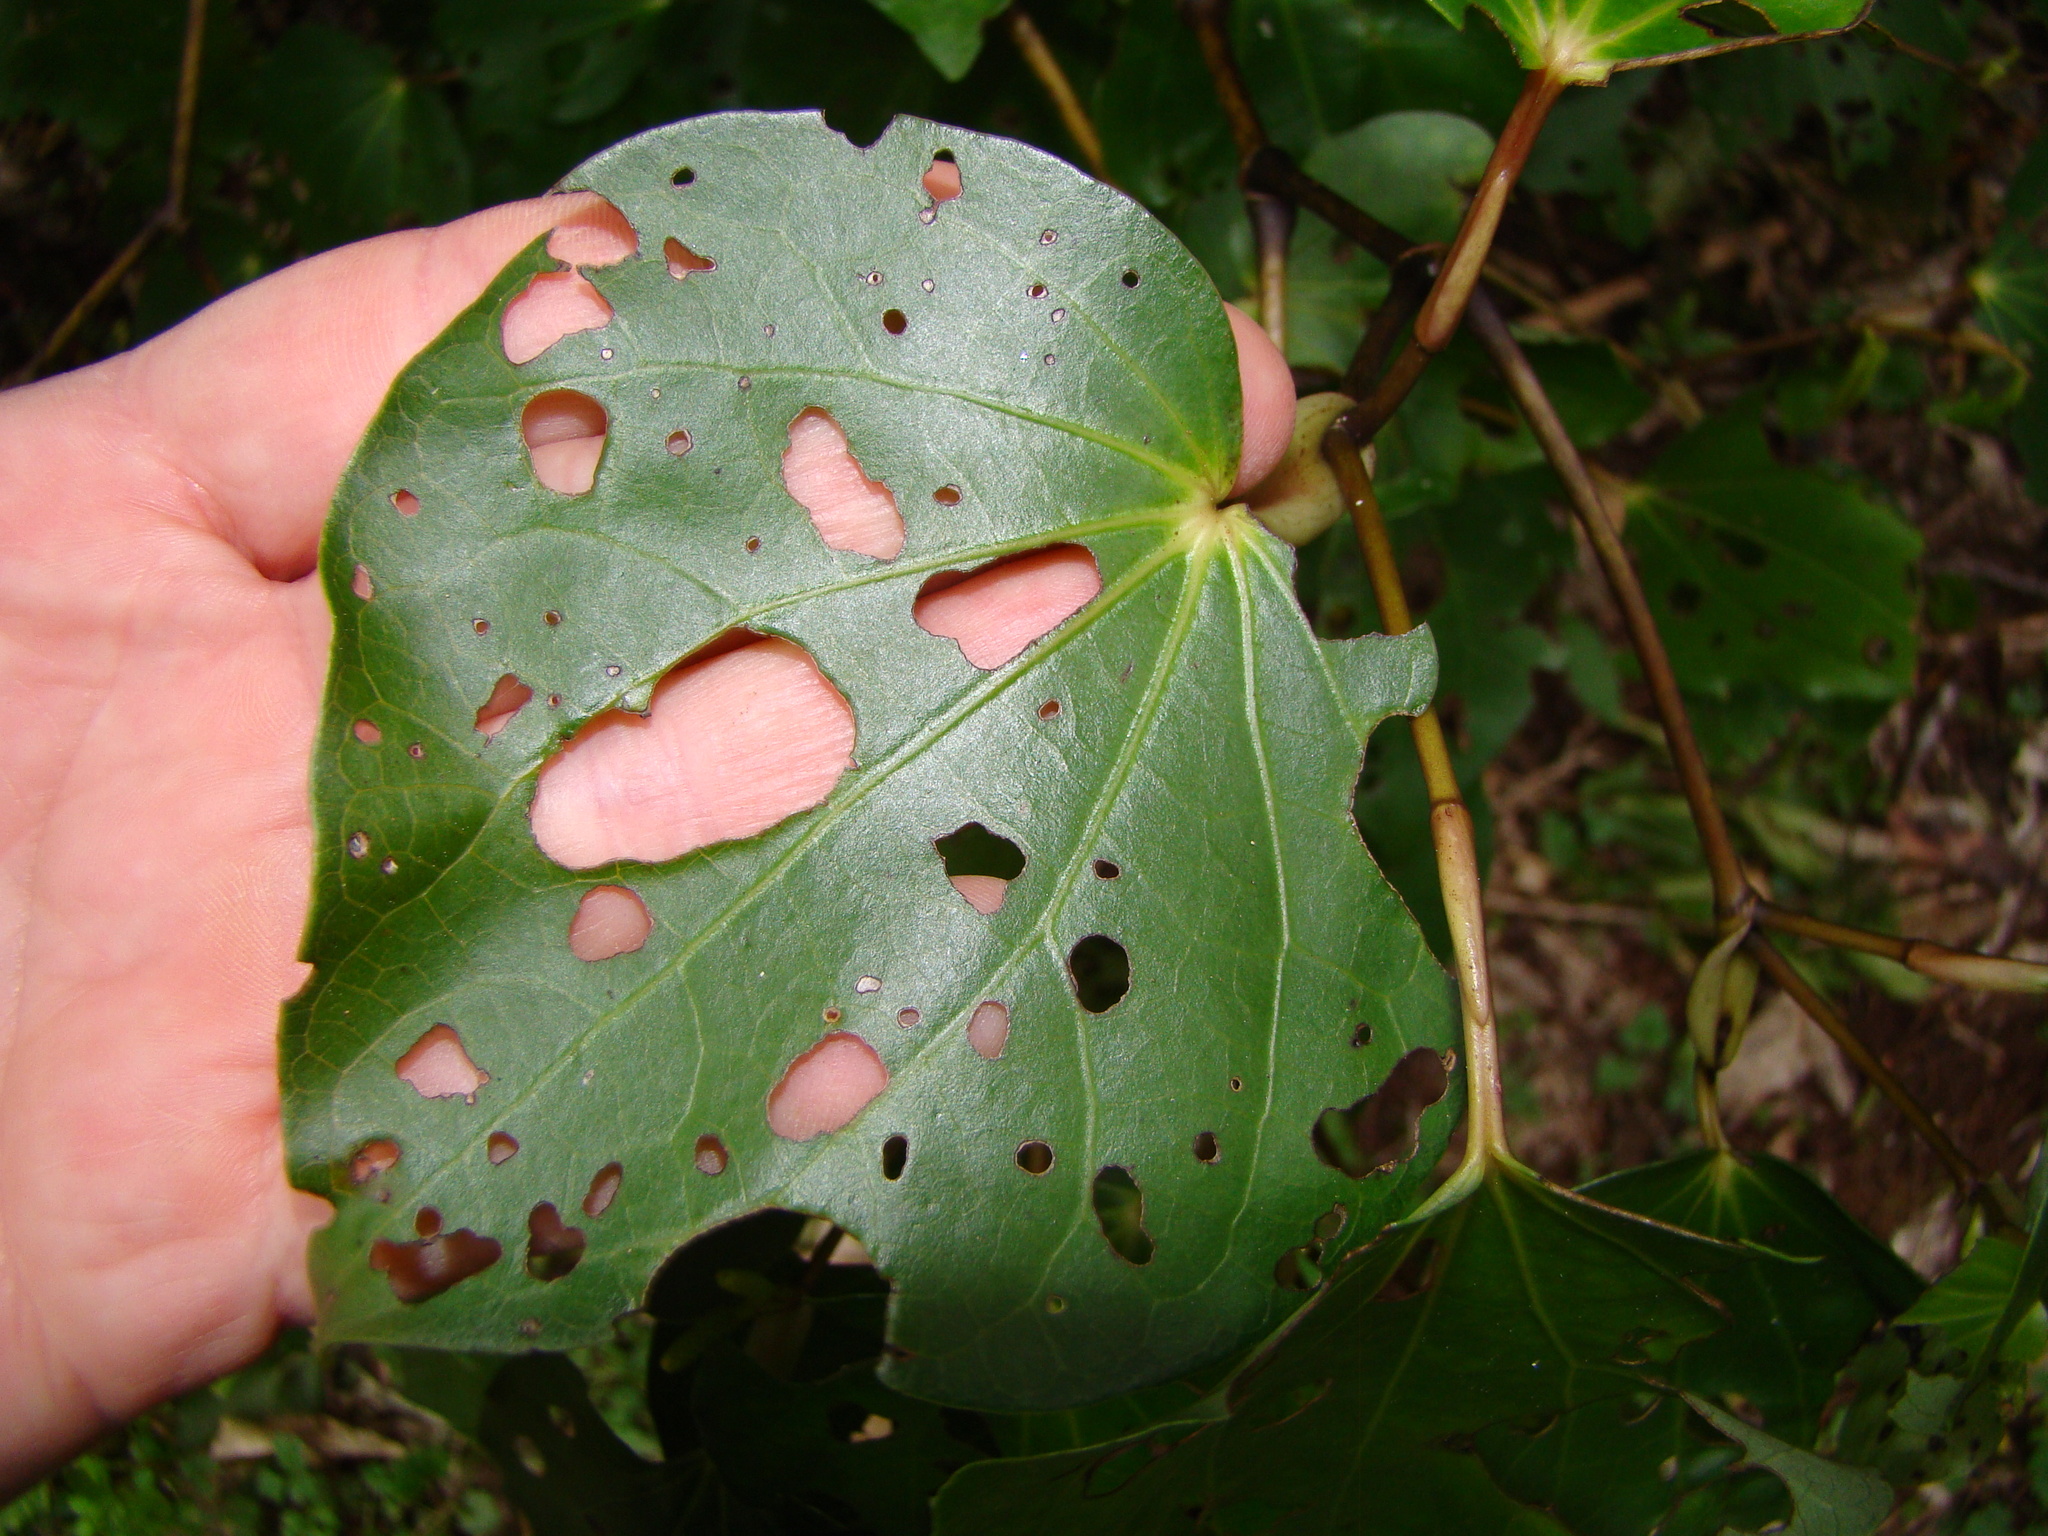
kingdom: Animalia
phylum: Arthropoda
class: Insecta
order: Lepidoptera
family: Geometridae
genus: Cleora
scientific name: Cleora scriptaria
